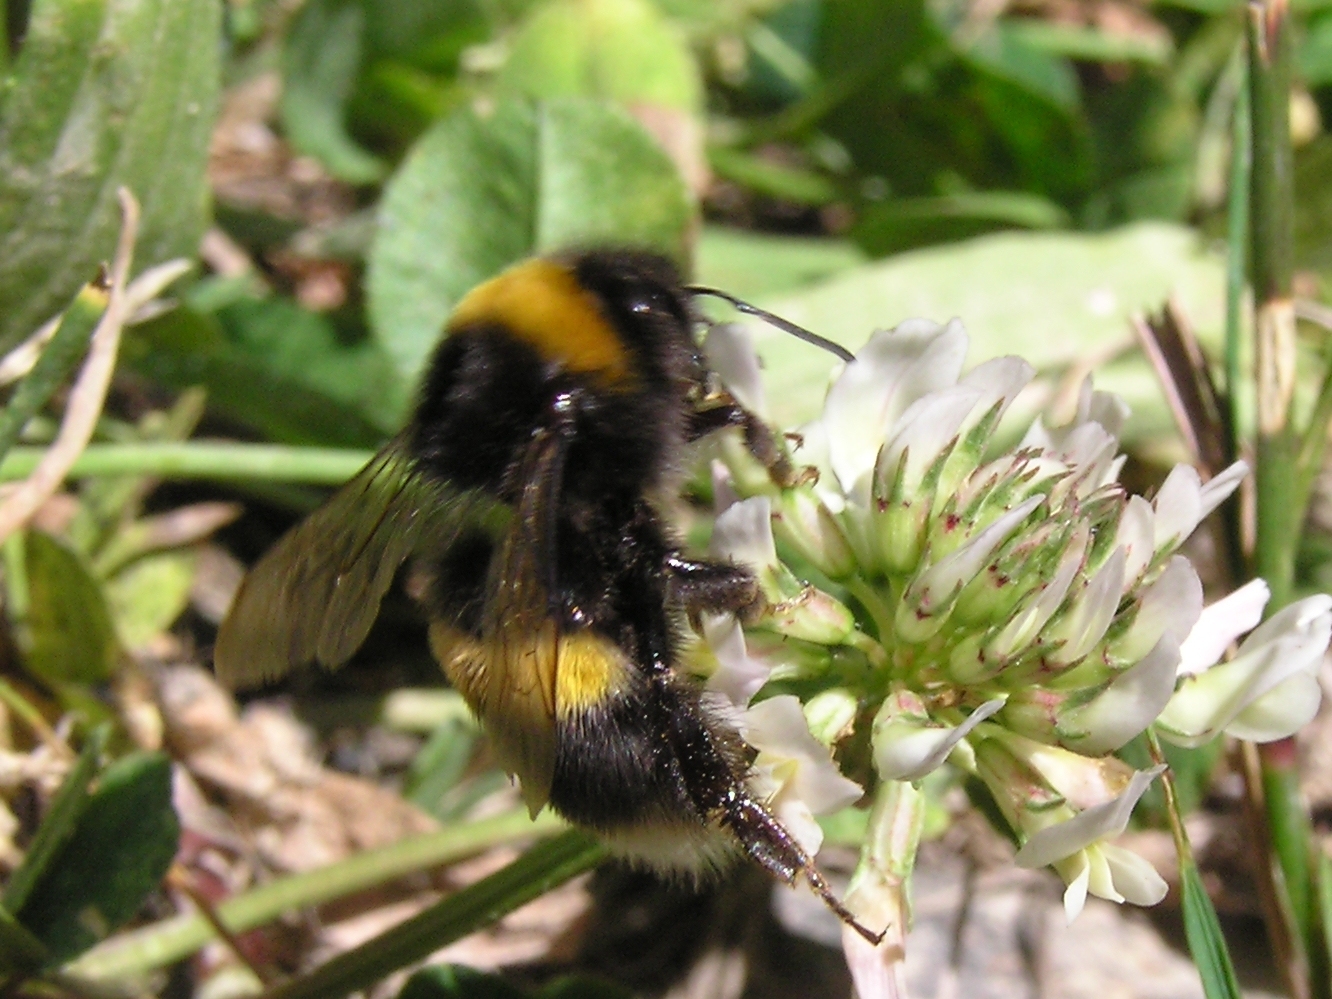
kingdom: Animalia
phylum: Arthropoda
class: Insecta
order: Hymenoptera
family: Apidae
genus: Bombus
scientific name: Bombus terrestris
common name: Buff-tailed bumblebee
